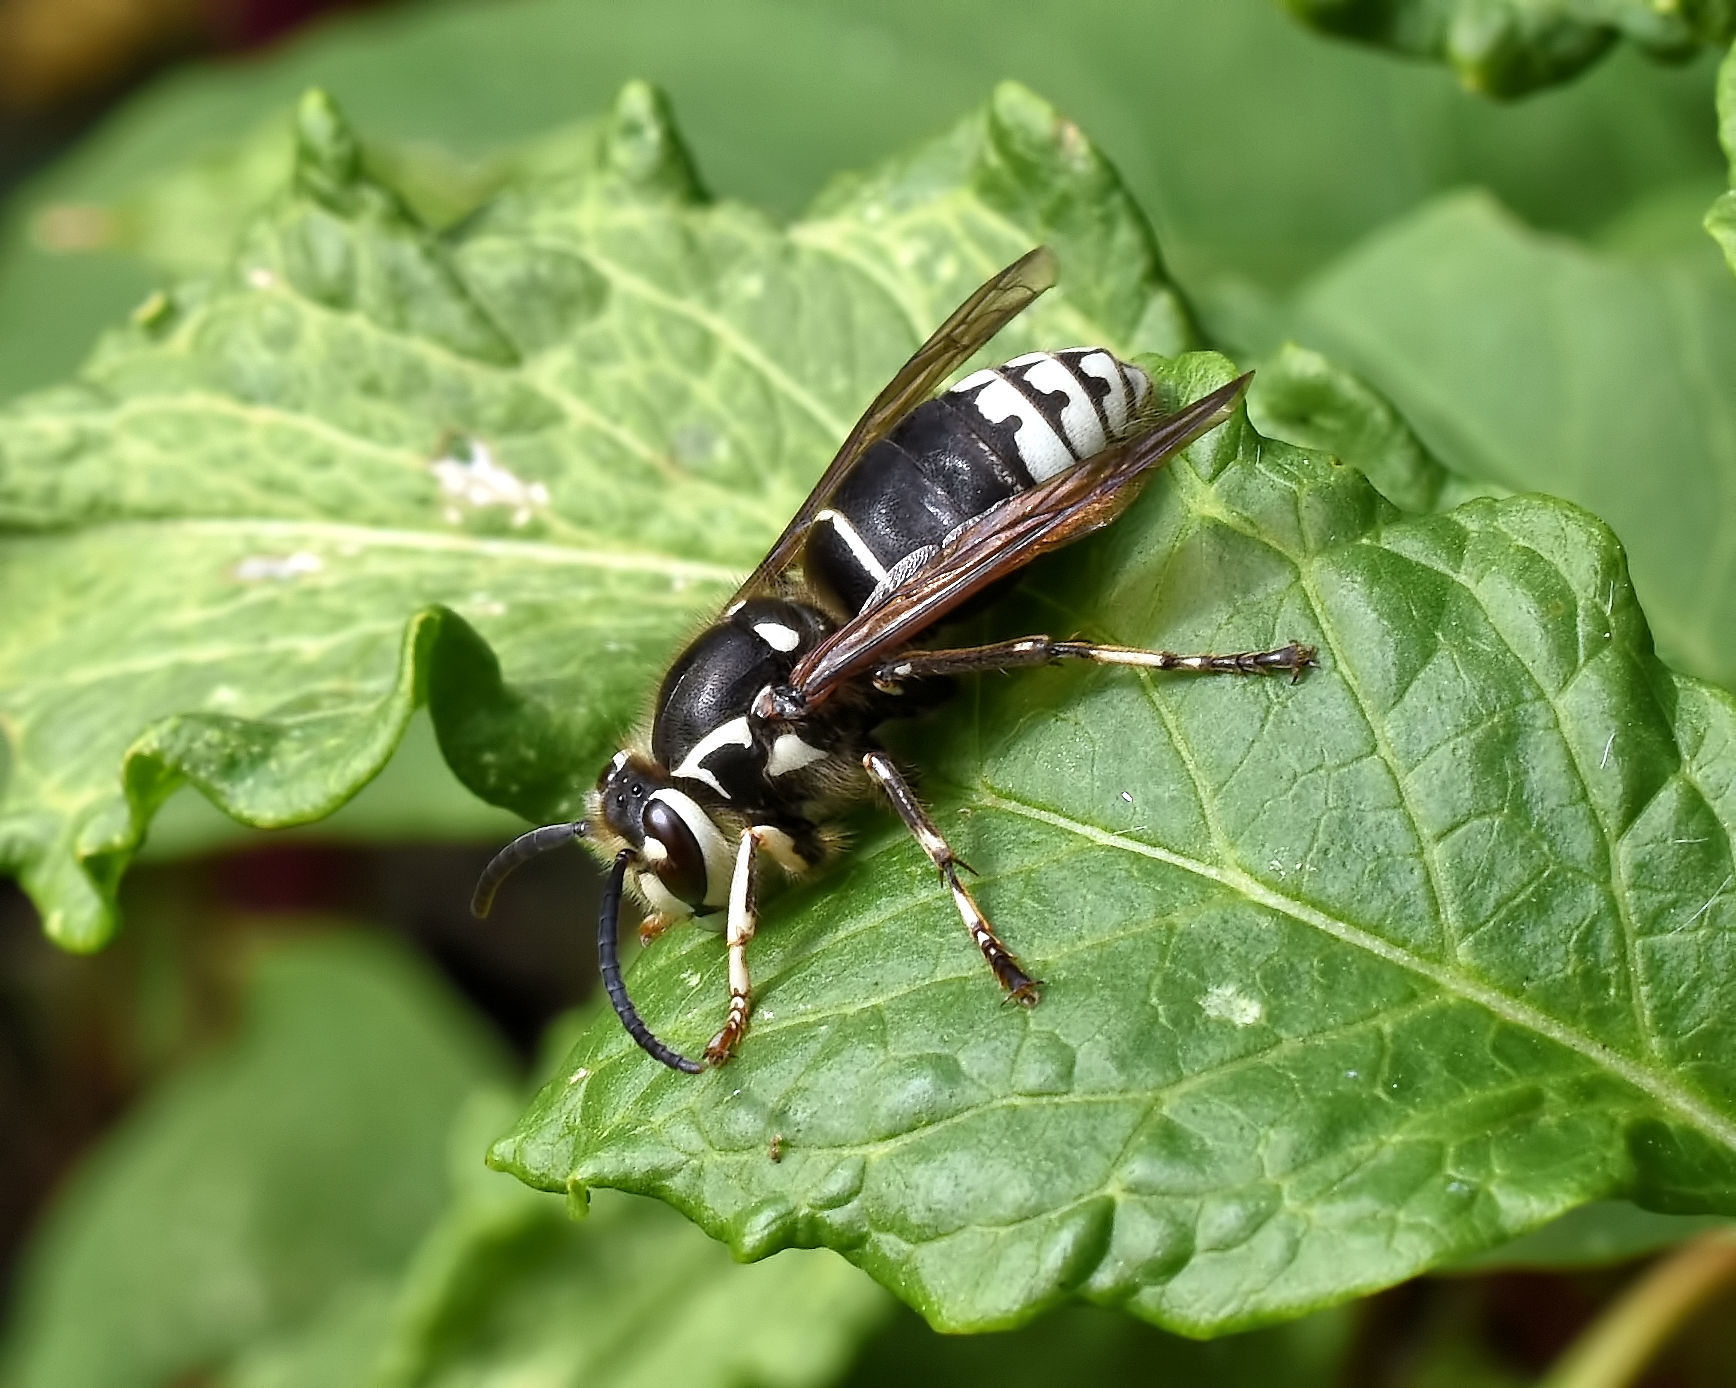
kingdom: Animalia
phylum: Arthropoda
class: Insecta
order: Hymenoptera
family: Vespidae
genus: Dolichovespula
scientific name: Dolichovespula maculata
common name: Bald-faced hornet
